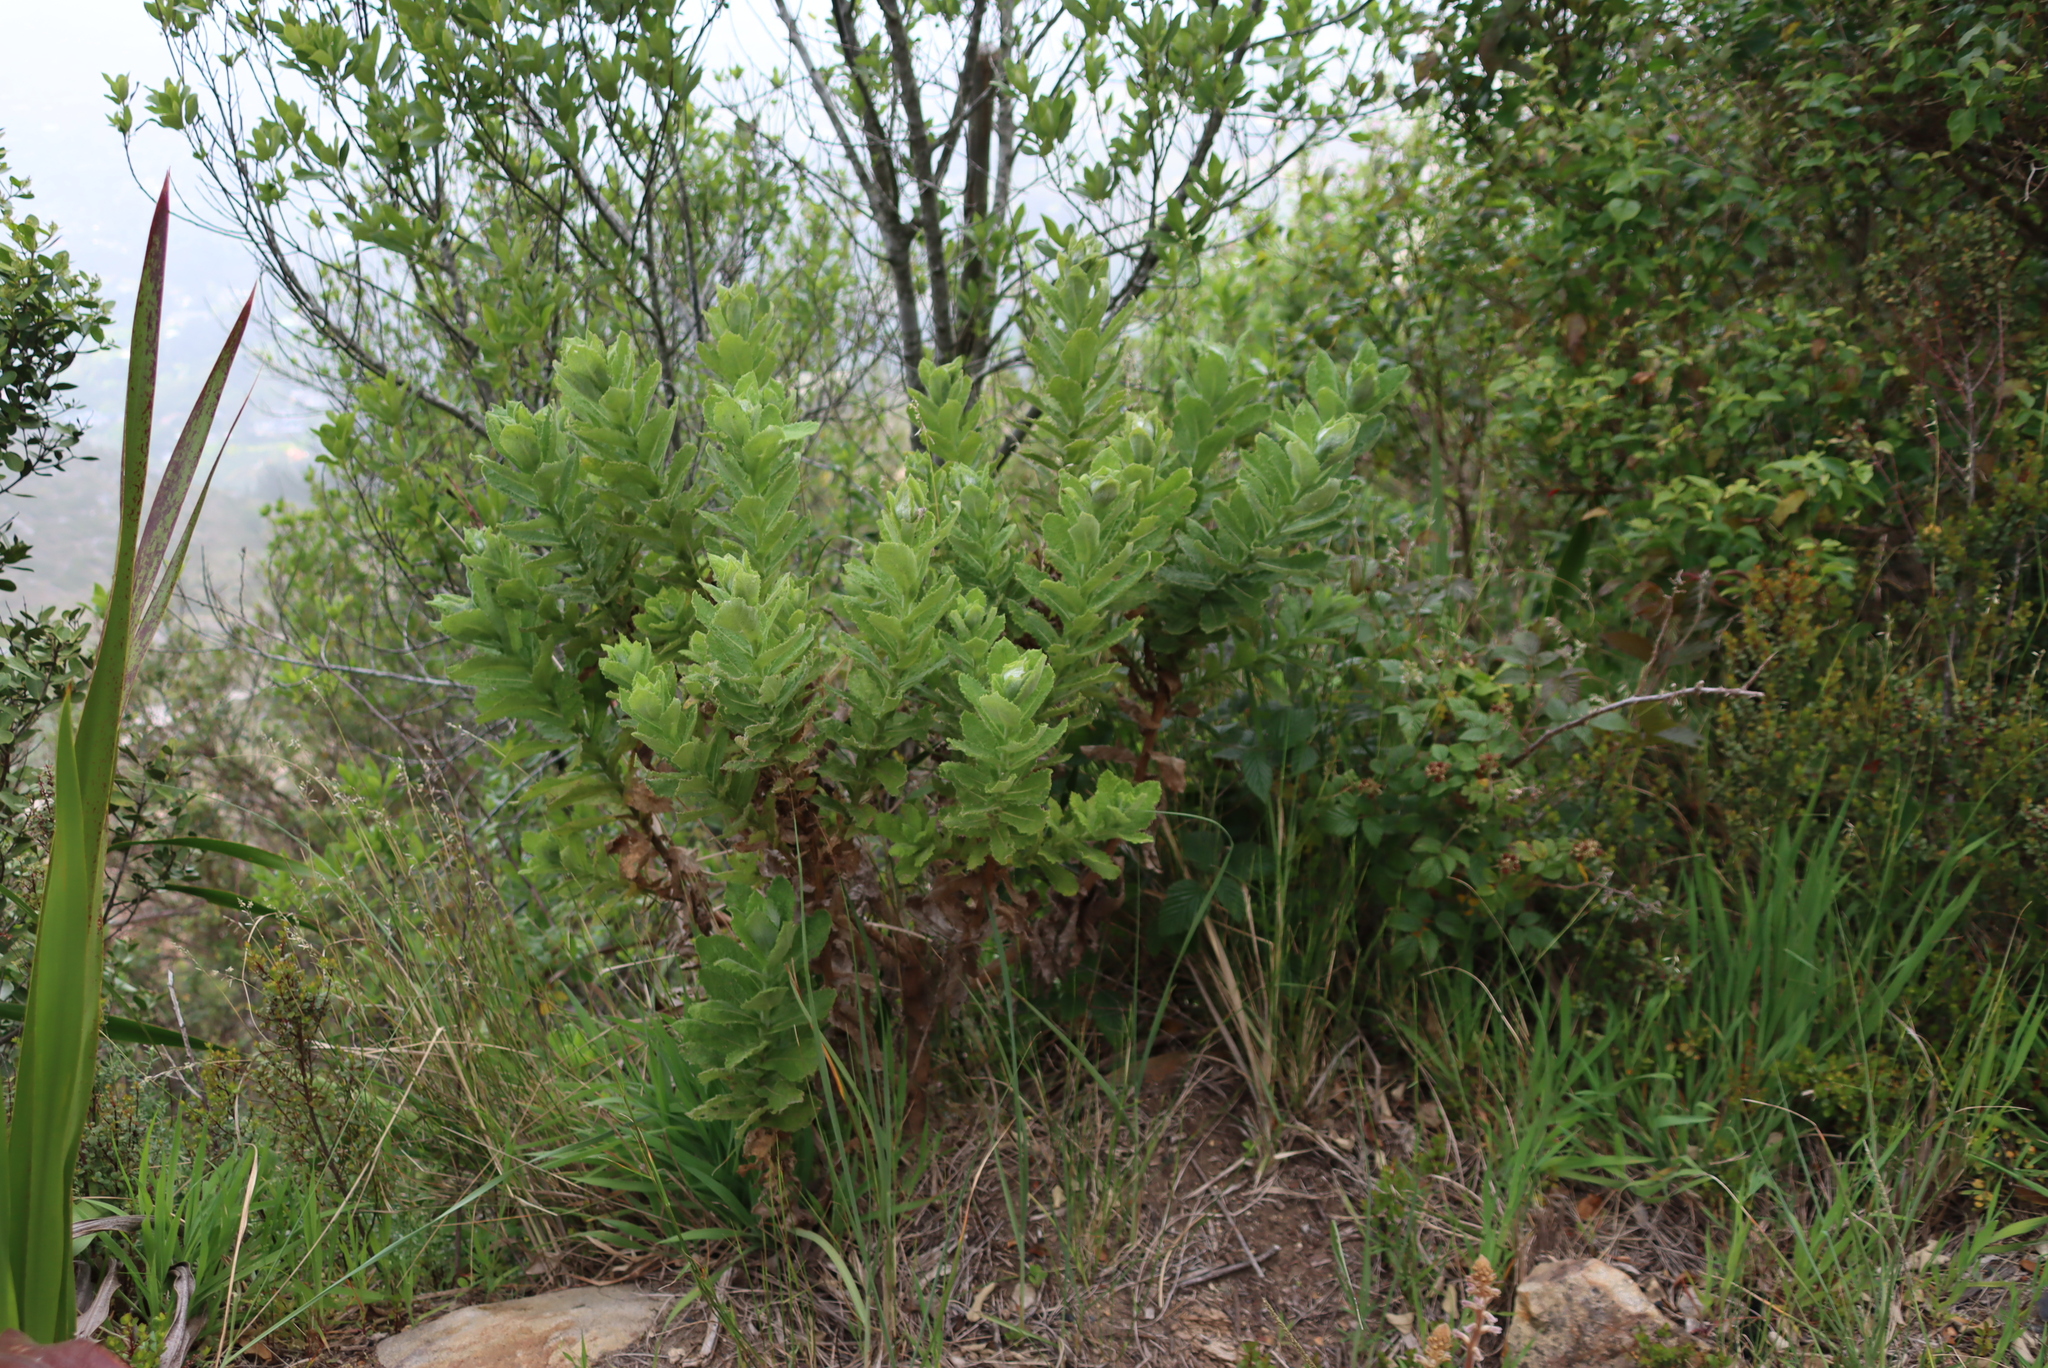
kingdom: Plantae
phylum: Tracheophyta
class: Magnoliopsida
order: Asterales
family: Asteraceae
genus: Senecio
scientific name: Senecio rigidus
